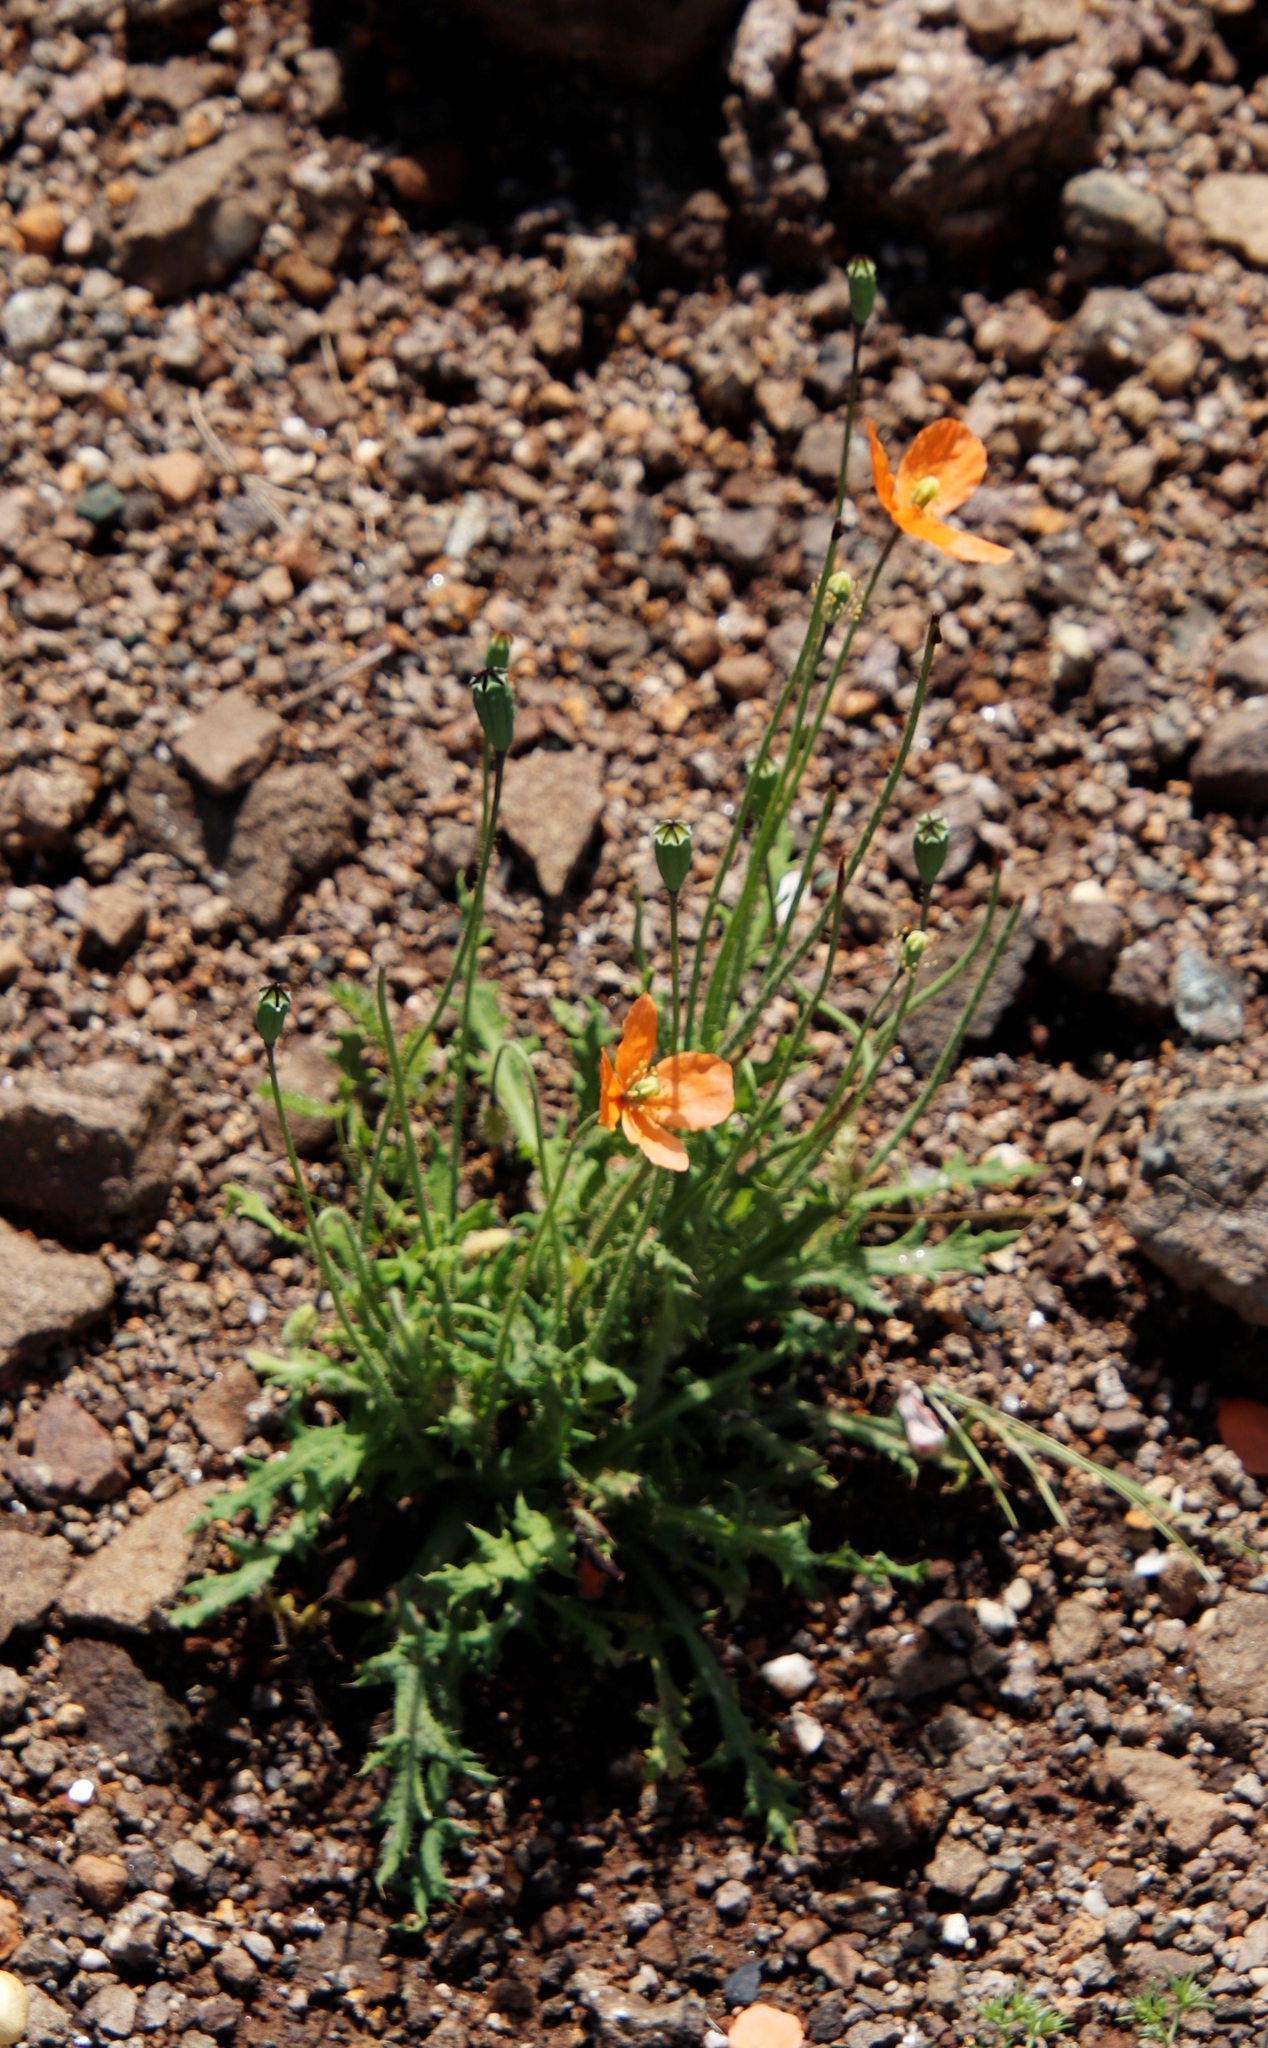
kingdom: Plantae
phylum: Tracheophyta
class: Magnoliopsida
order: Ranunculales
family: Papaveraceae
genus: Papaver
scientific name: Papaver aculeatum
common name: Bristle poppy
